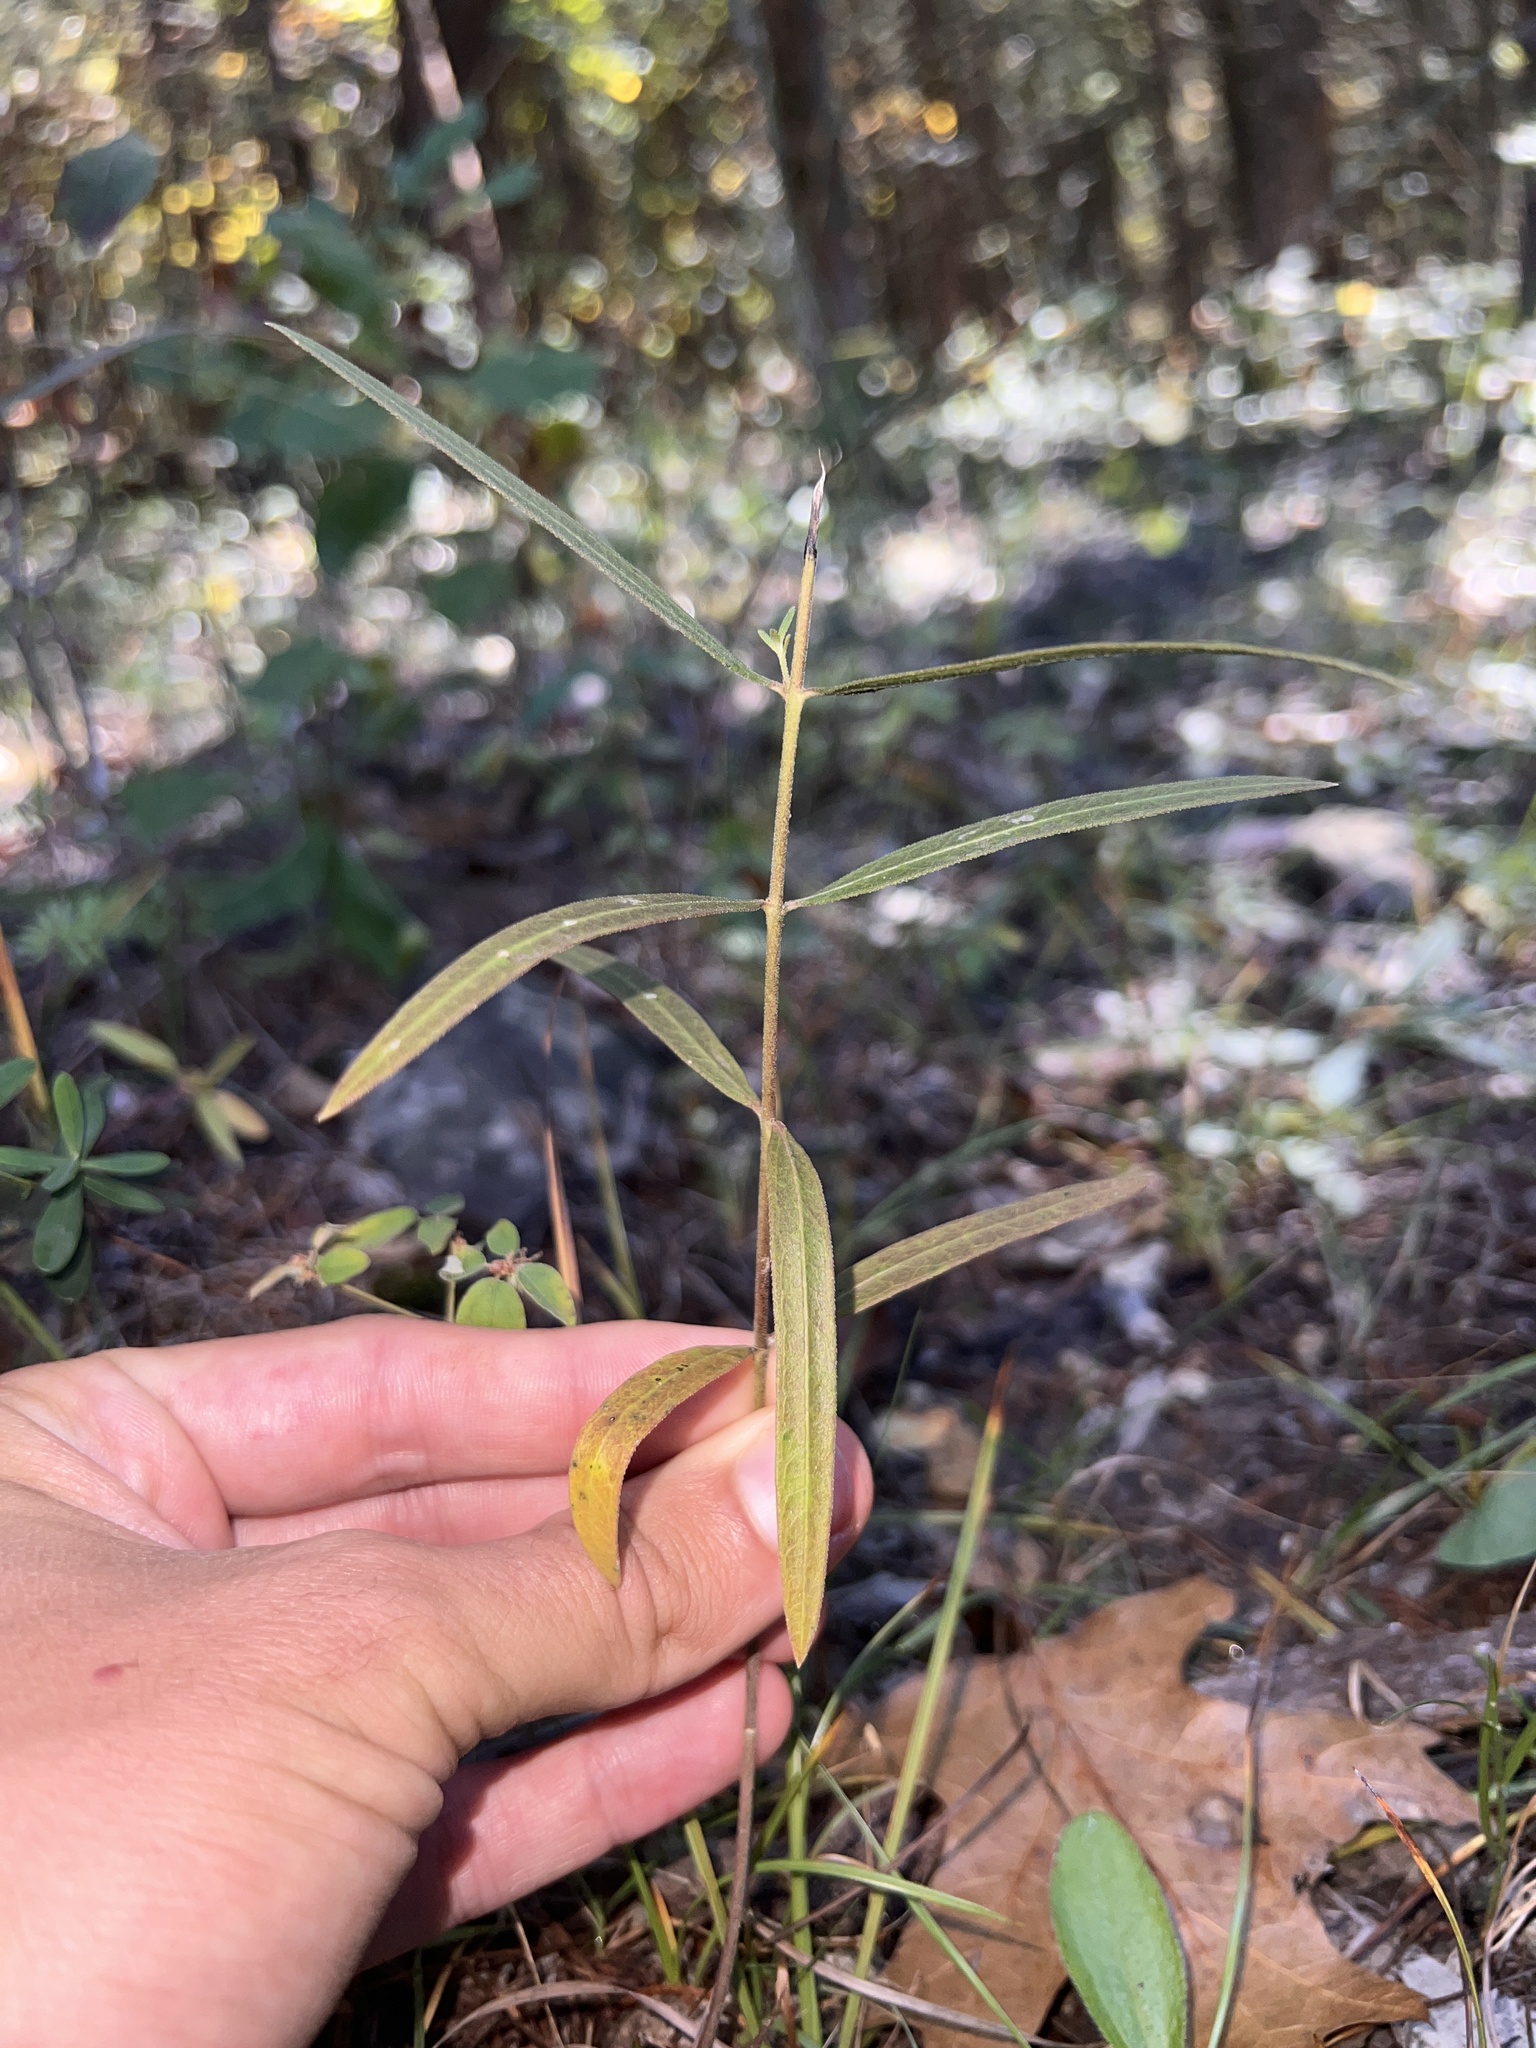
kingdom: Plantae
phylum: Tracheophyta
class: Magnoliopsida
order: Gentianales
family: Apocynaceae
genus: Asclepias
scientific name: Asclepias viridiflora
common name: Green comet milkweed
